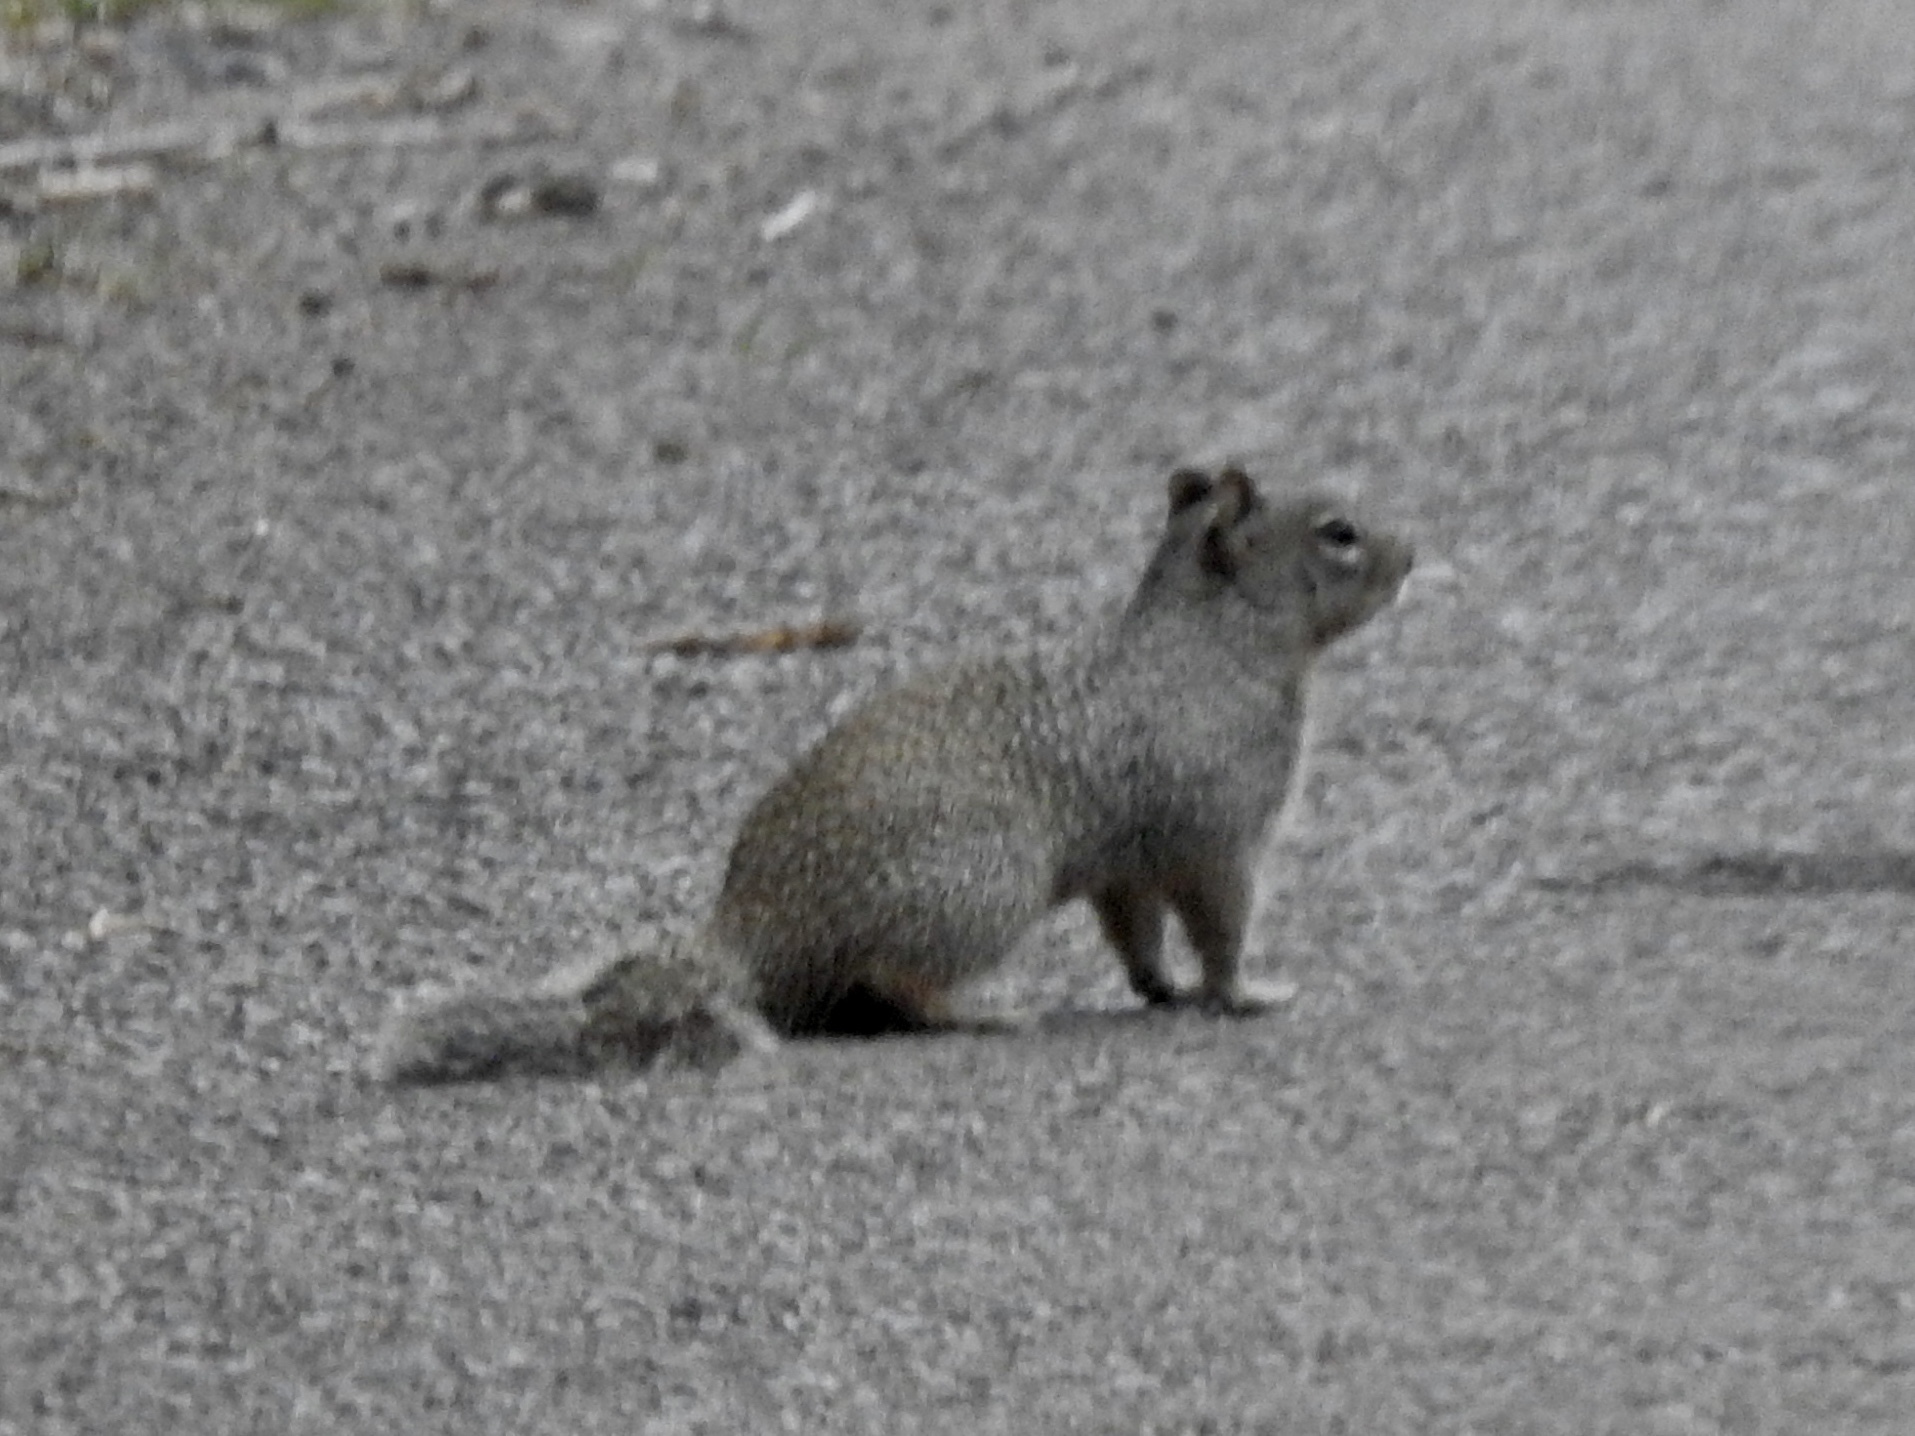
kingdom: Animalia
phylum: Chordata
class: Mammalia
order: Rodentia
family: Sciuridae
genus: Otospermophilus
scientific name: Otospermophilus variegatus
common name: Rock squirrel
